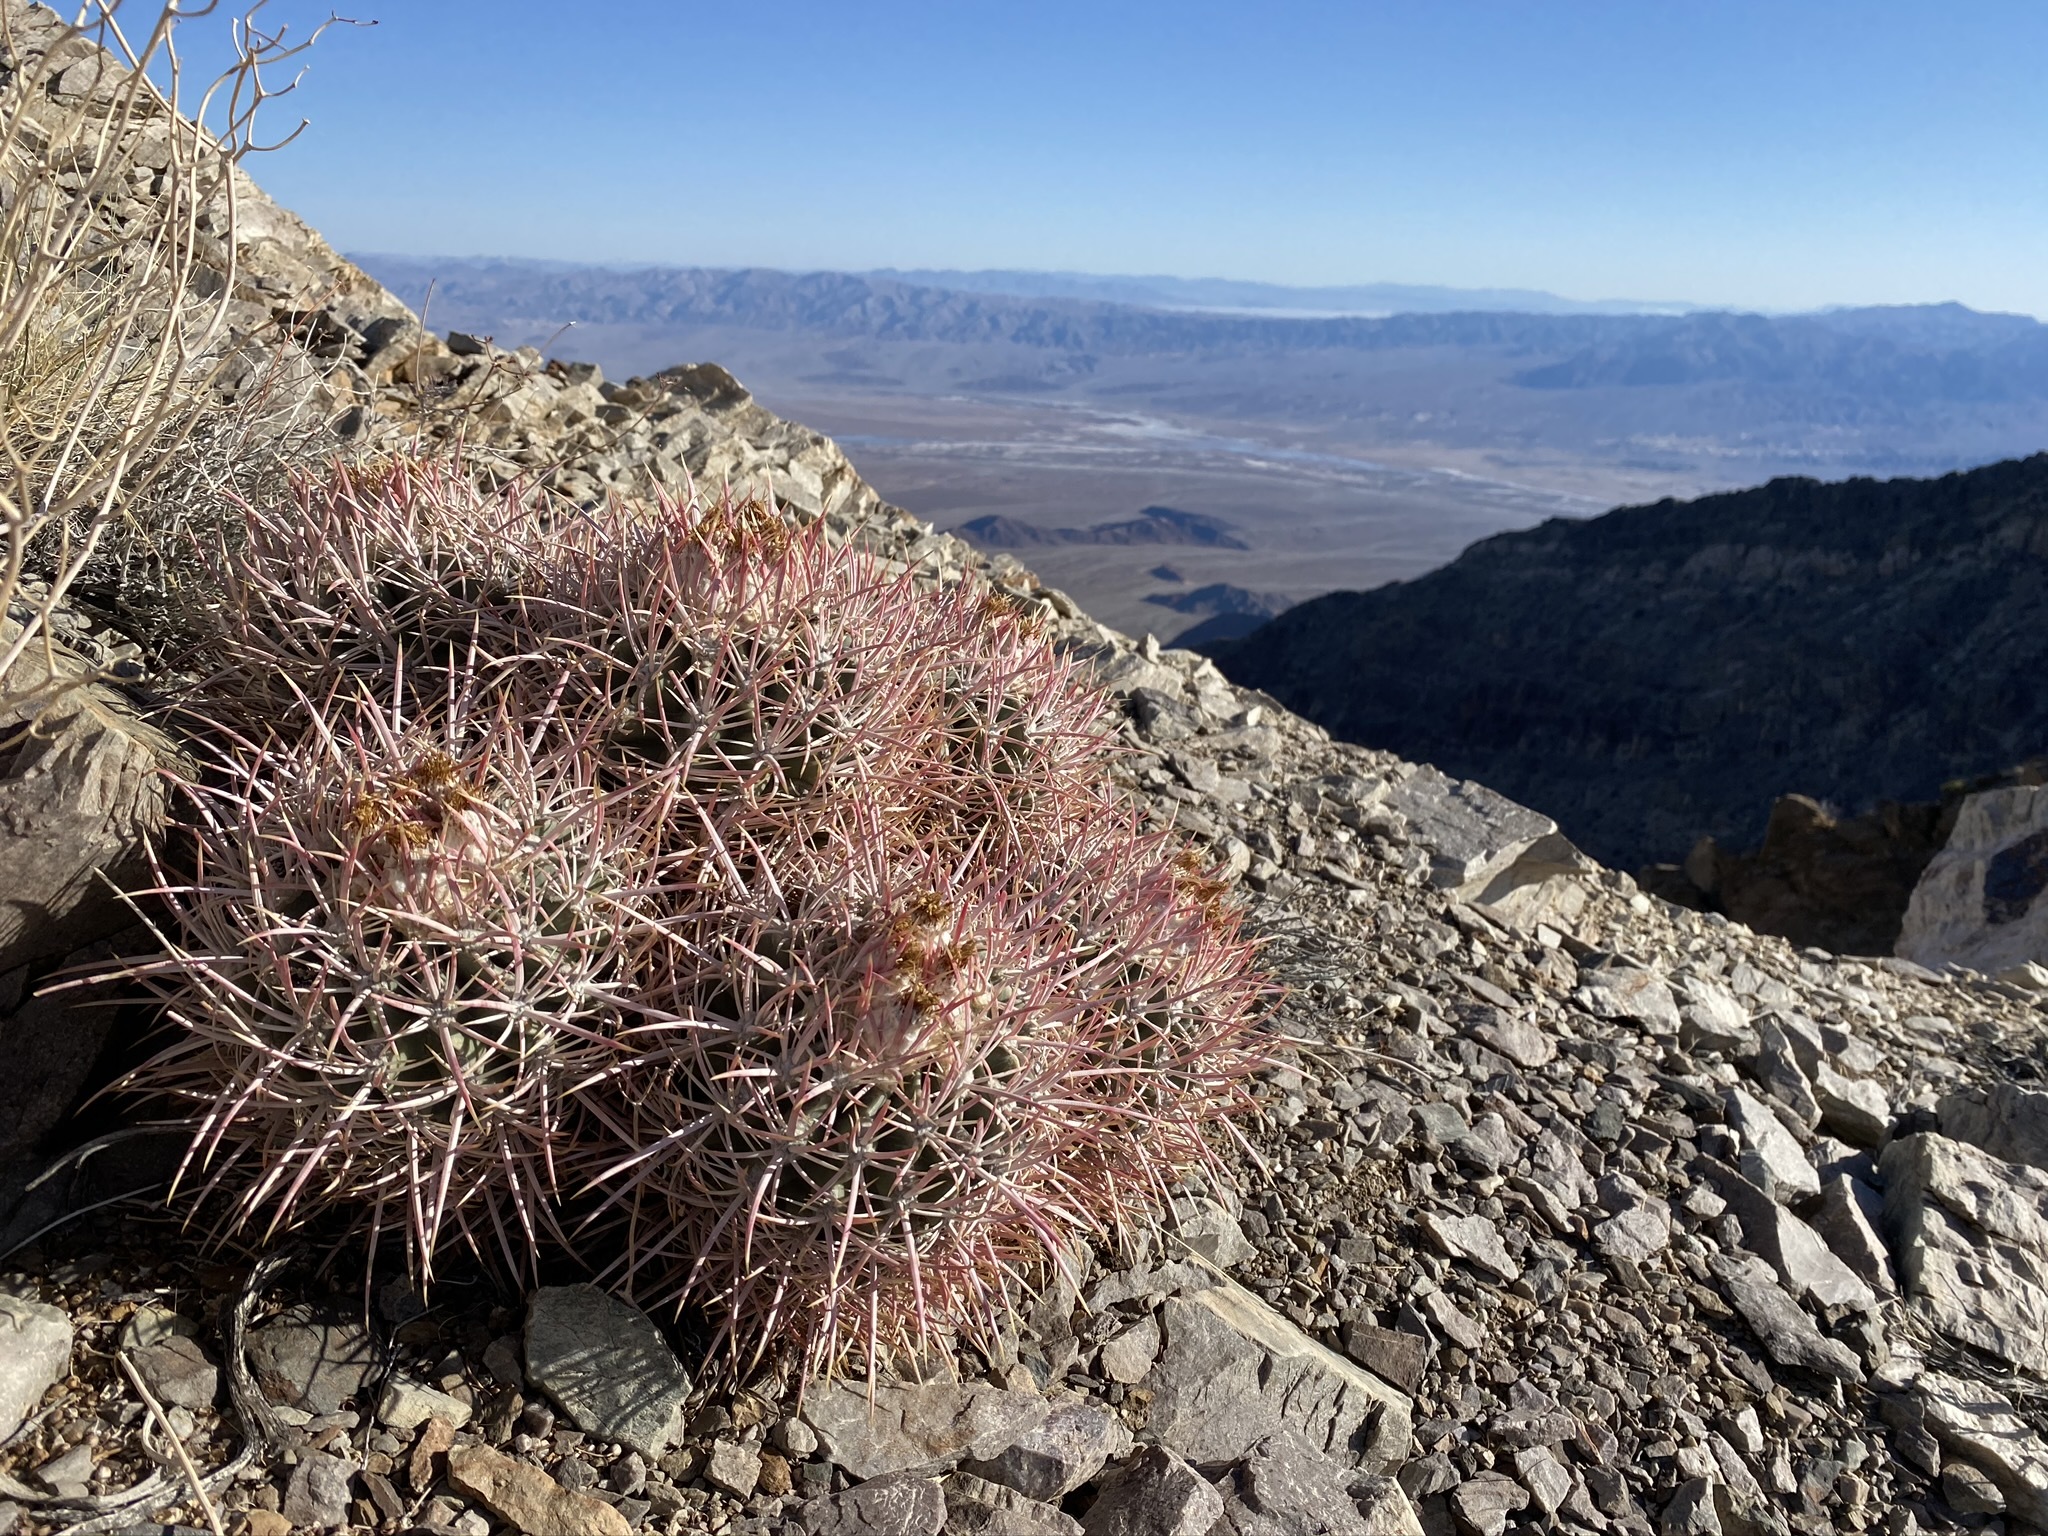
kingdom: Plantae
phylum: Tracheophyta
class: Magnoliopsida
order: Caryophyllales
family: Cactaceae
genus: Echinocactus
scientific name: Echinocactus polycephalus
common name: Cottontop cactus
